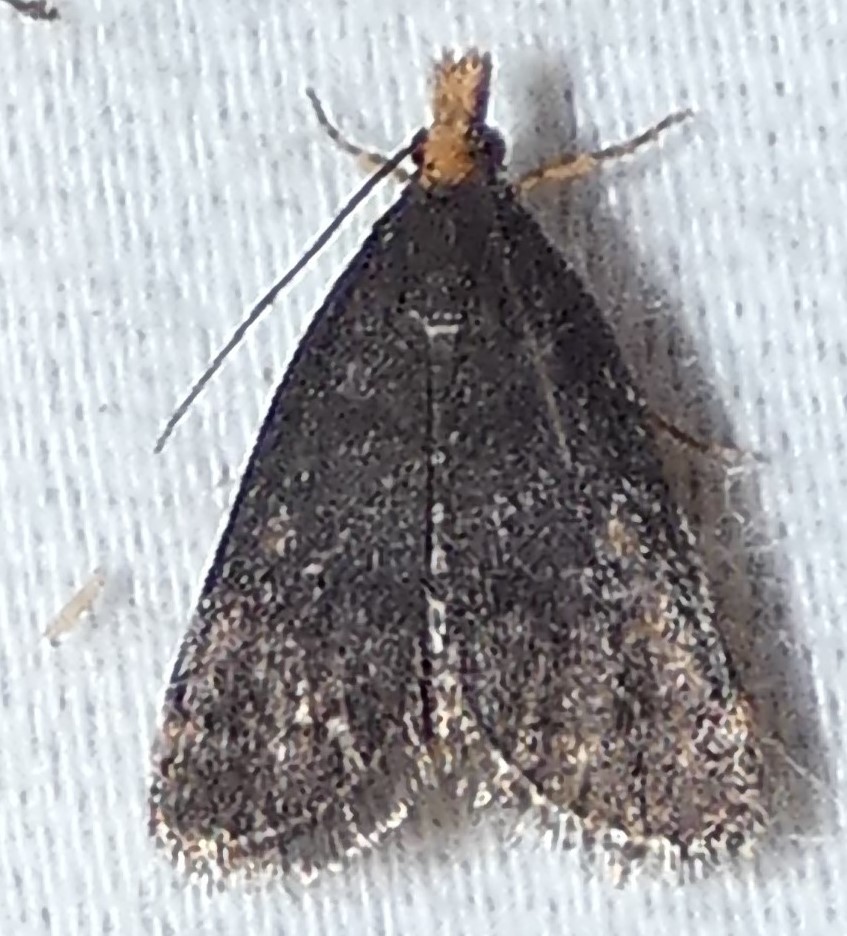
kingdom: Animalia
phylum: Arthropoda
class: Insecta
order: Lepidoptera
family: Crambidae
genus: Pyrausta
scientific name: Pyrausta merrickalis
